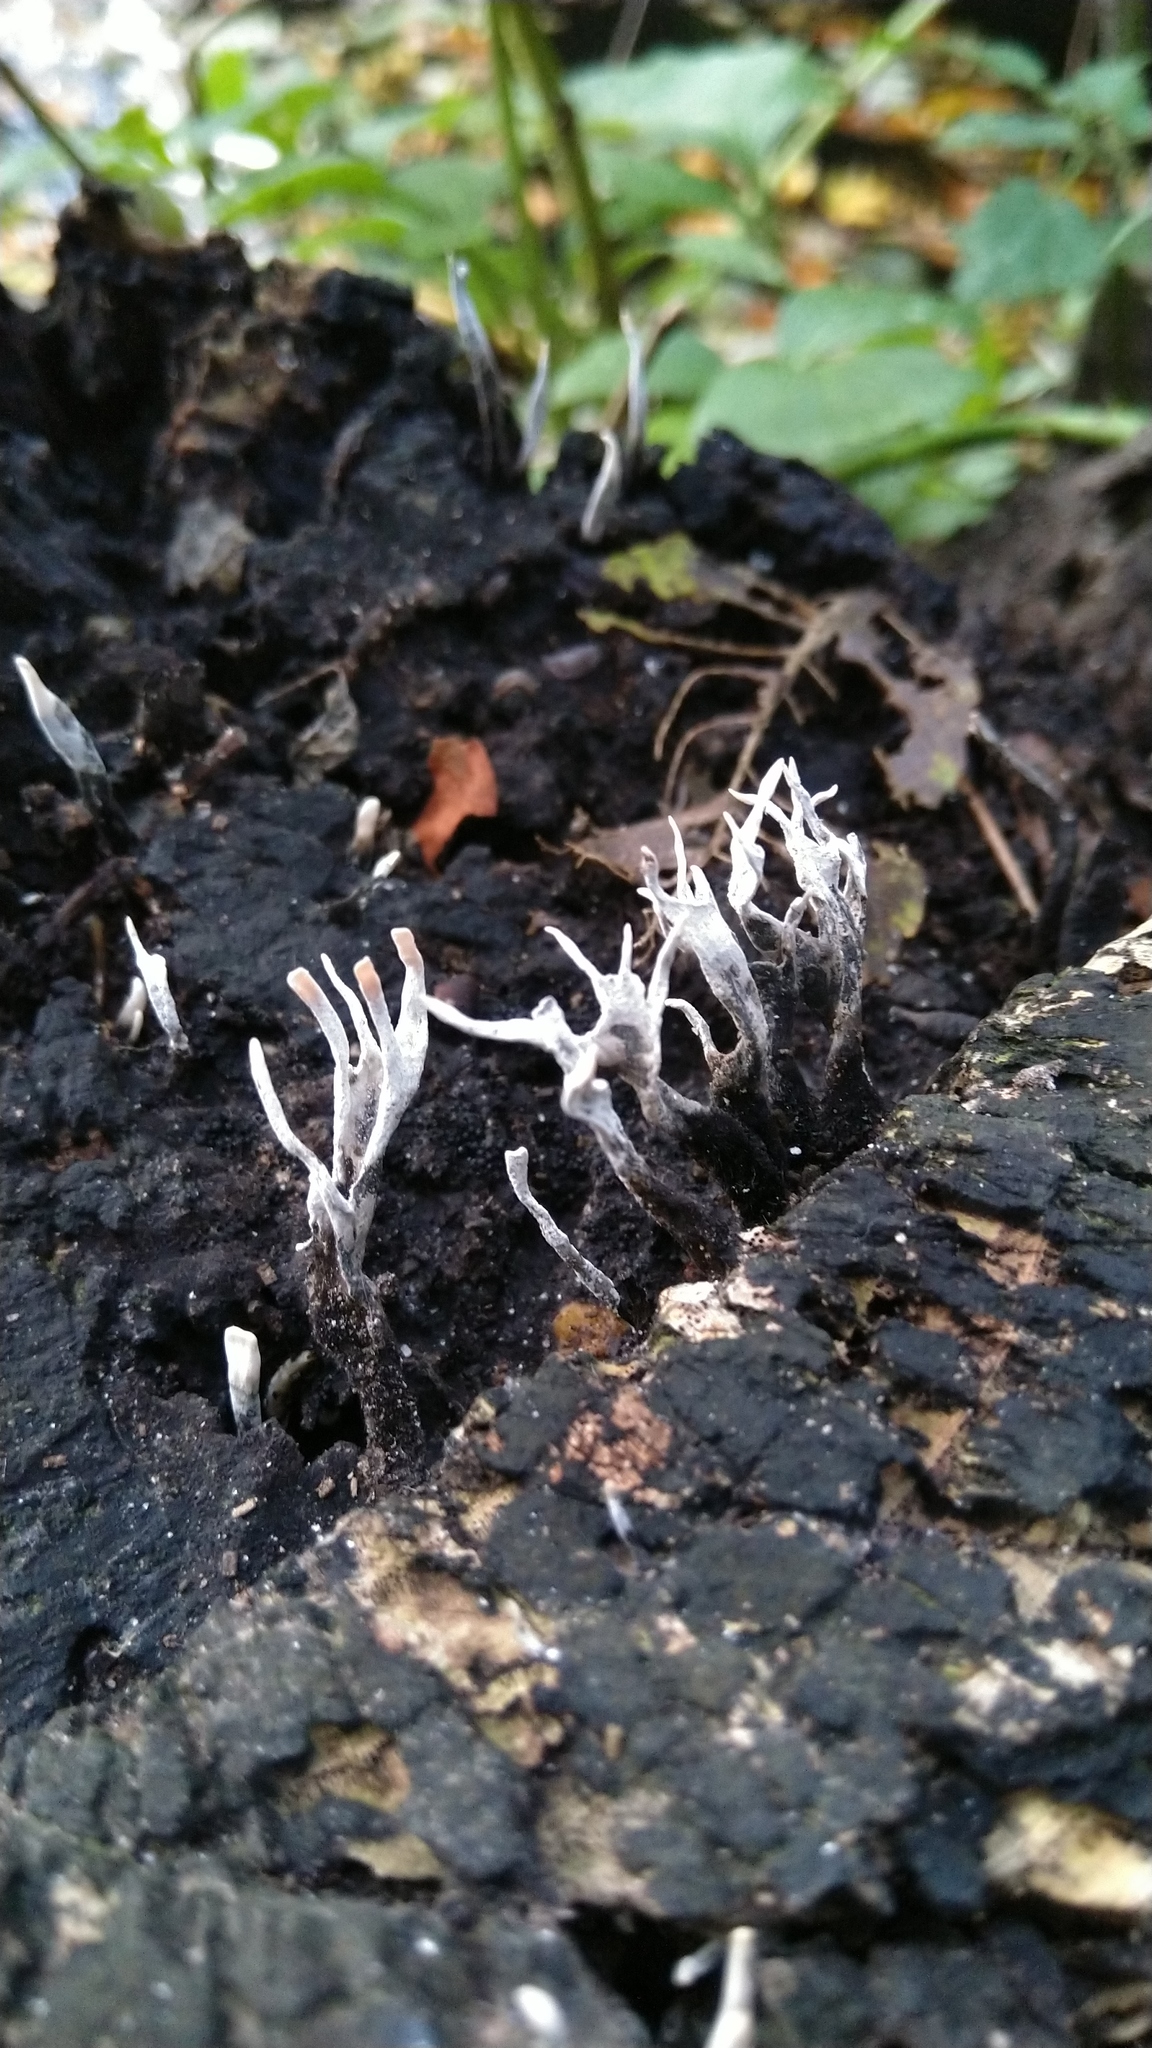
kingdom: Fungi
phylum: Ascomycota
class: Sordariomycetes
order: Xylariales
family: Xylariaceae
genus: Xylaria
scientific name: Xylaria hypoxylon
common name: Candle-snuff fungus
